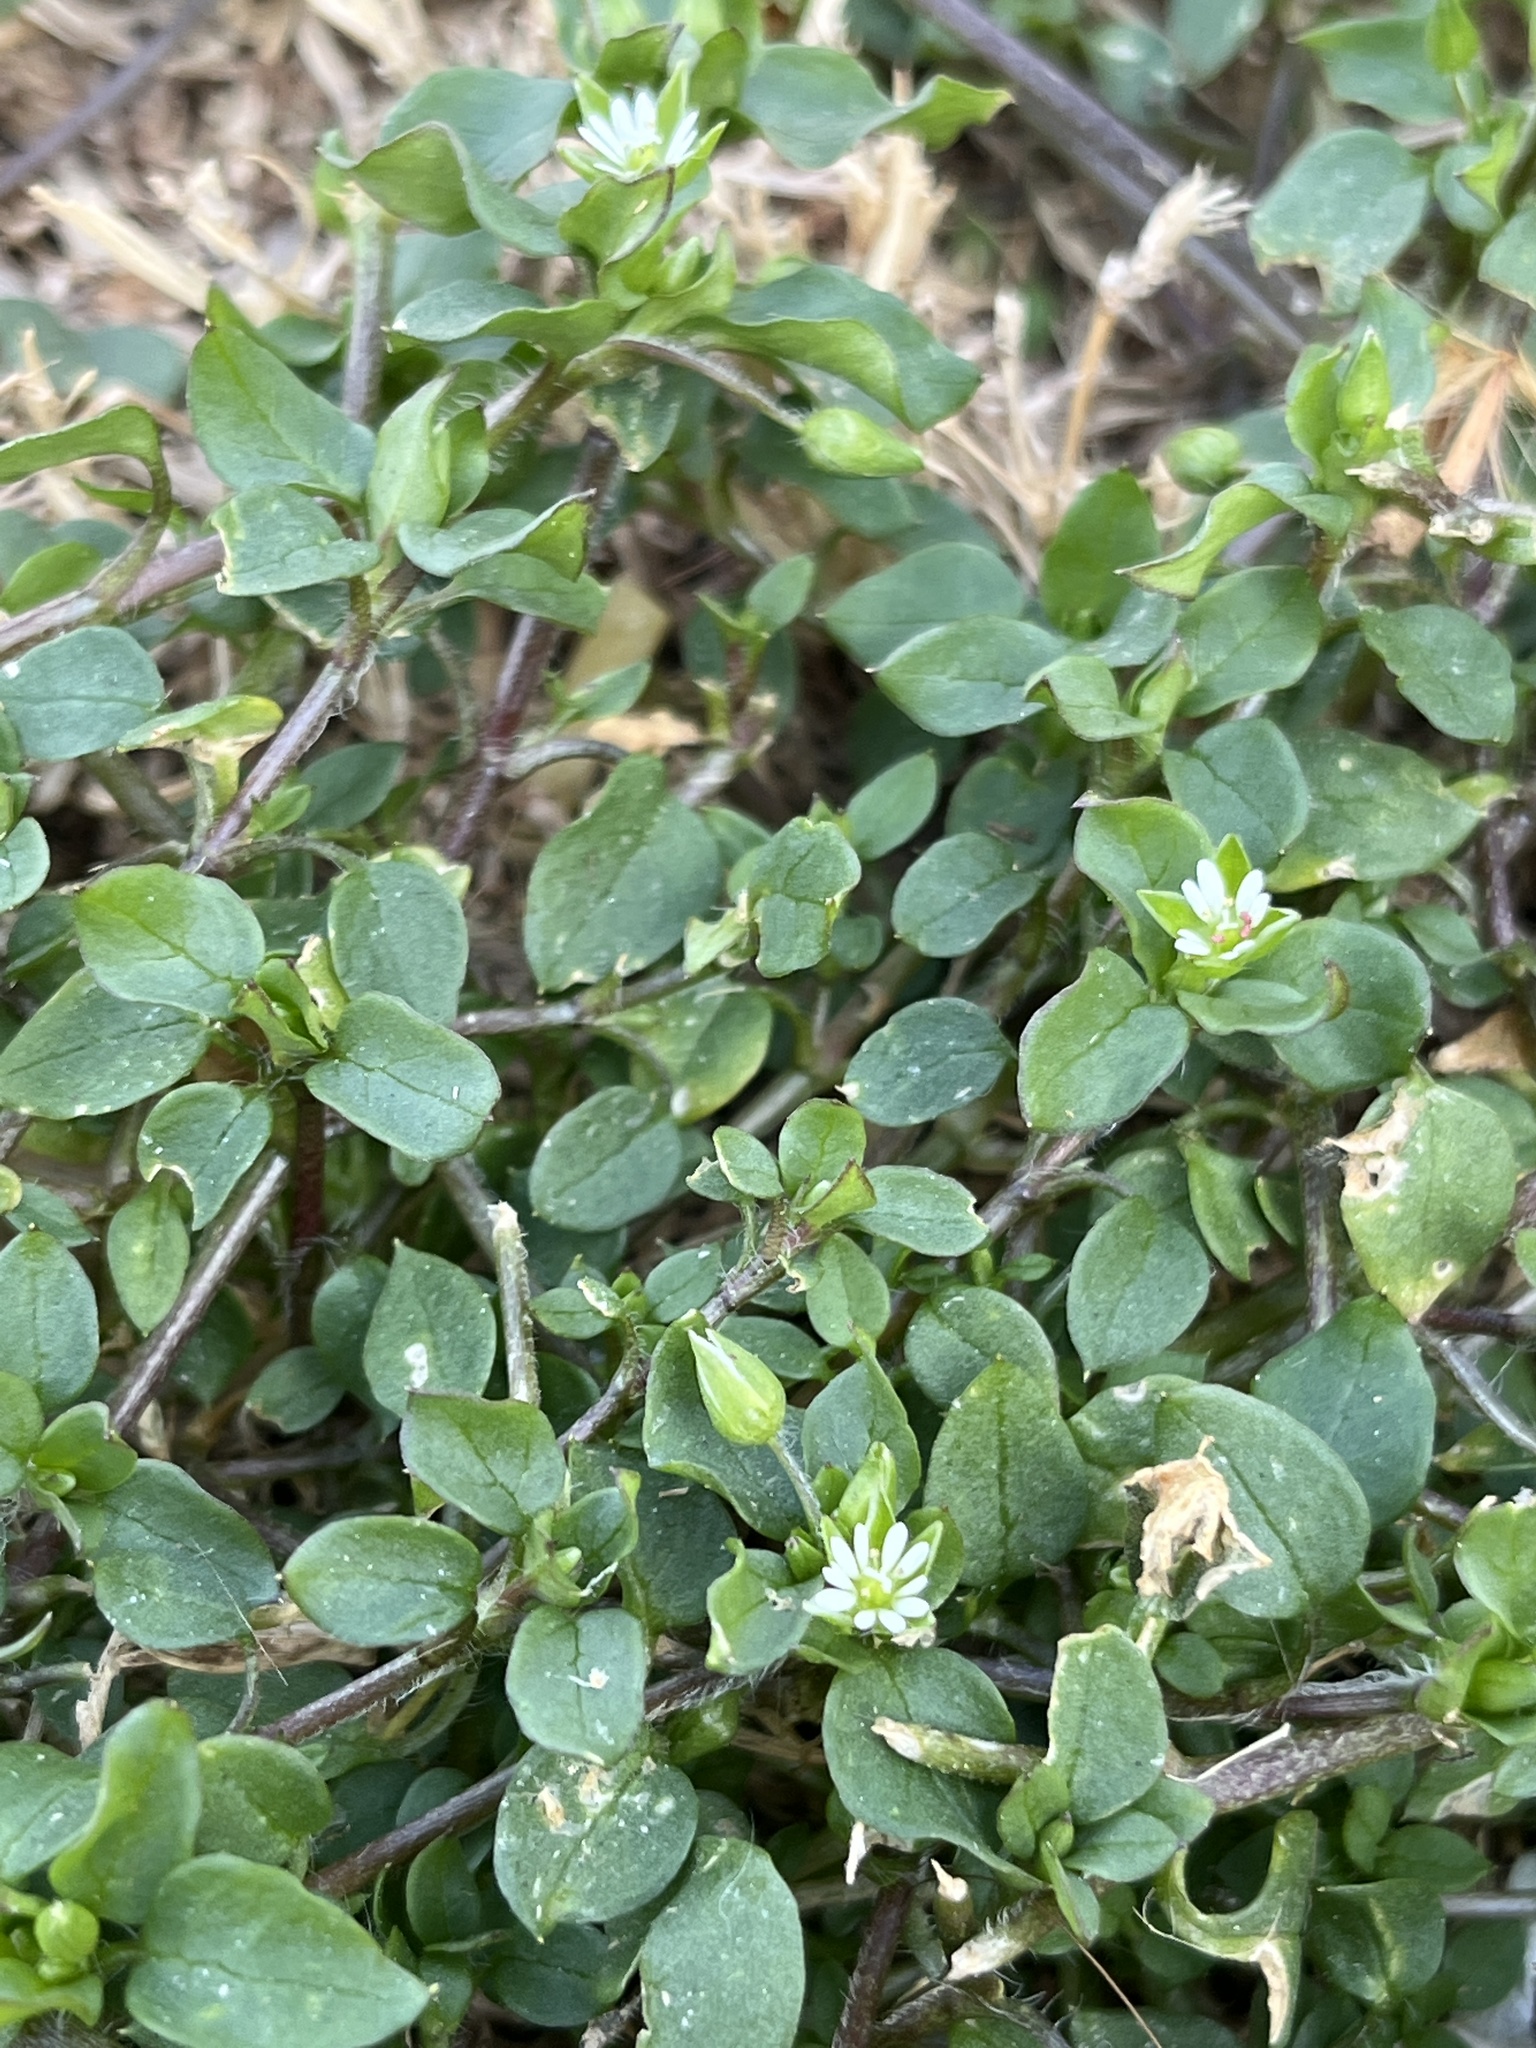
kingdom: Plantae
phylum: Tracheophyta
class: Magnoliopsida
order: Caryophyllales
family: Caryophyllaceae
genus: Stellaria
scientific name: Stellaria media
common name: Common chickweed
